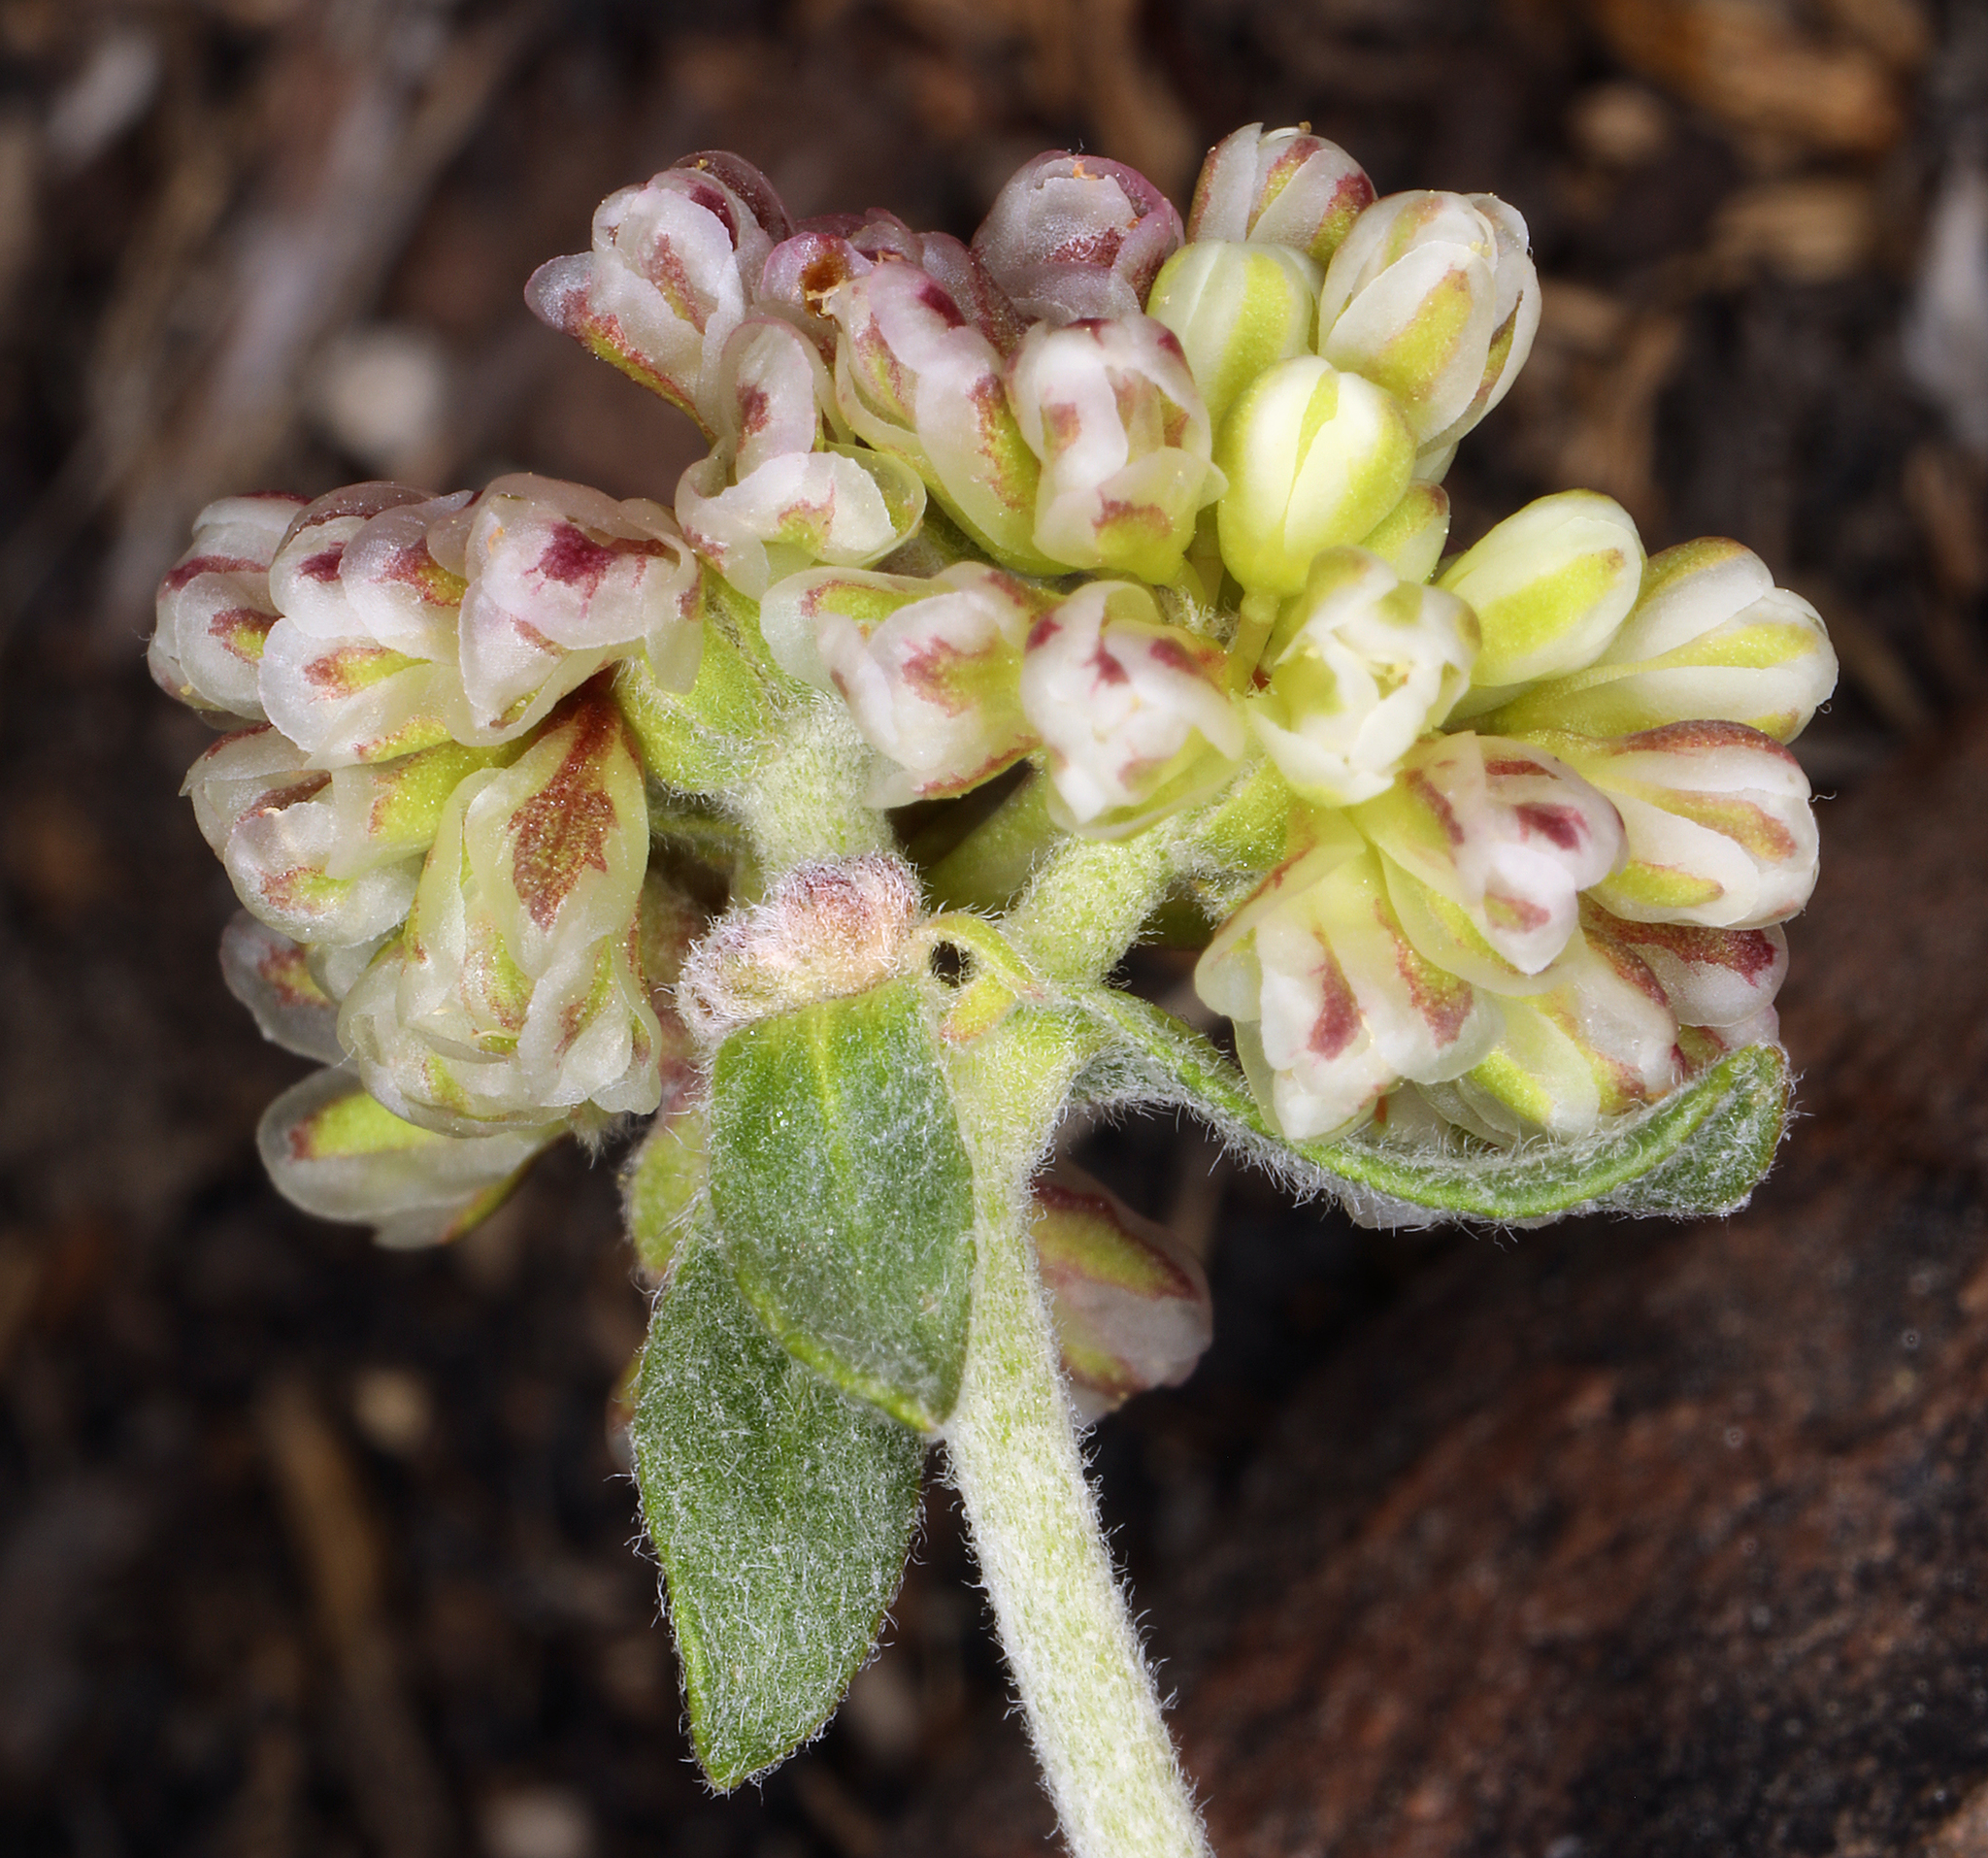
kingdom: Plantae
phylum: Tracheophyta
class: Magnoliopsida
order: Caryophyllales
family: Polygonaceae
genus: Eriogonum
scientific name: Eriogonum umbellatum
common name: Sulfur-buckwheat
